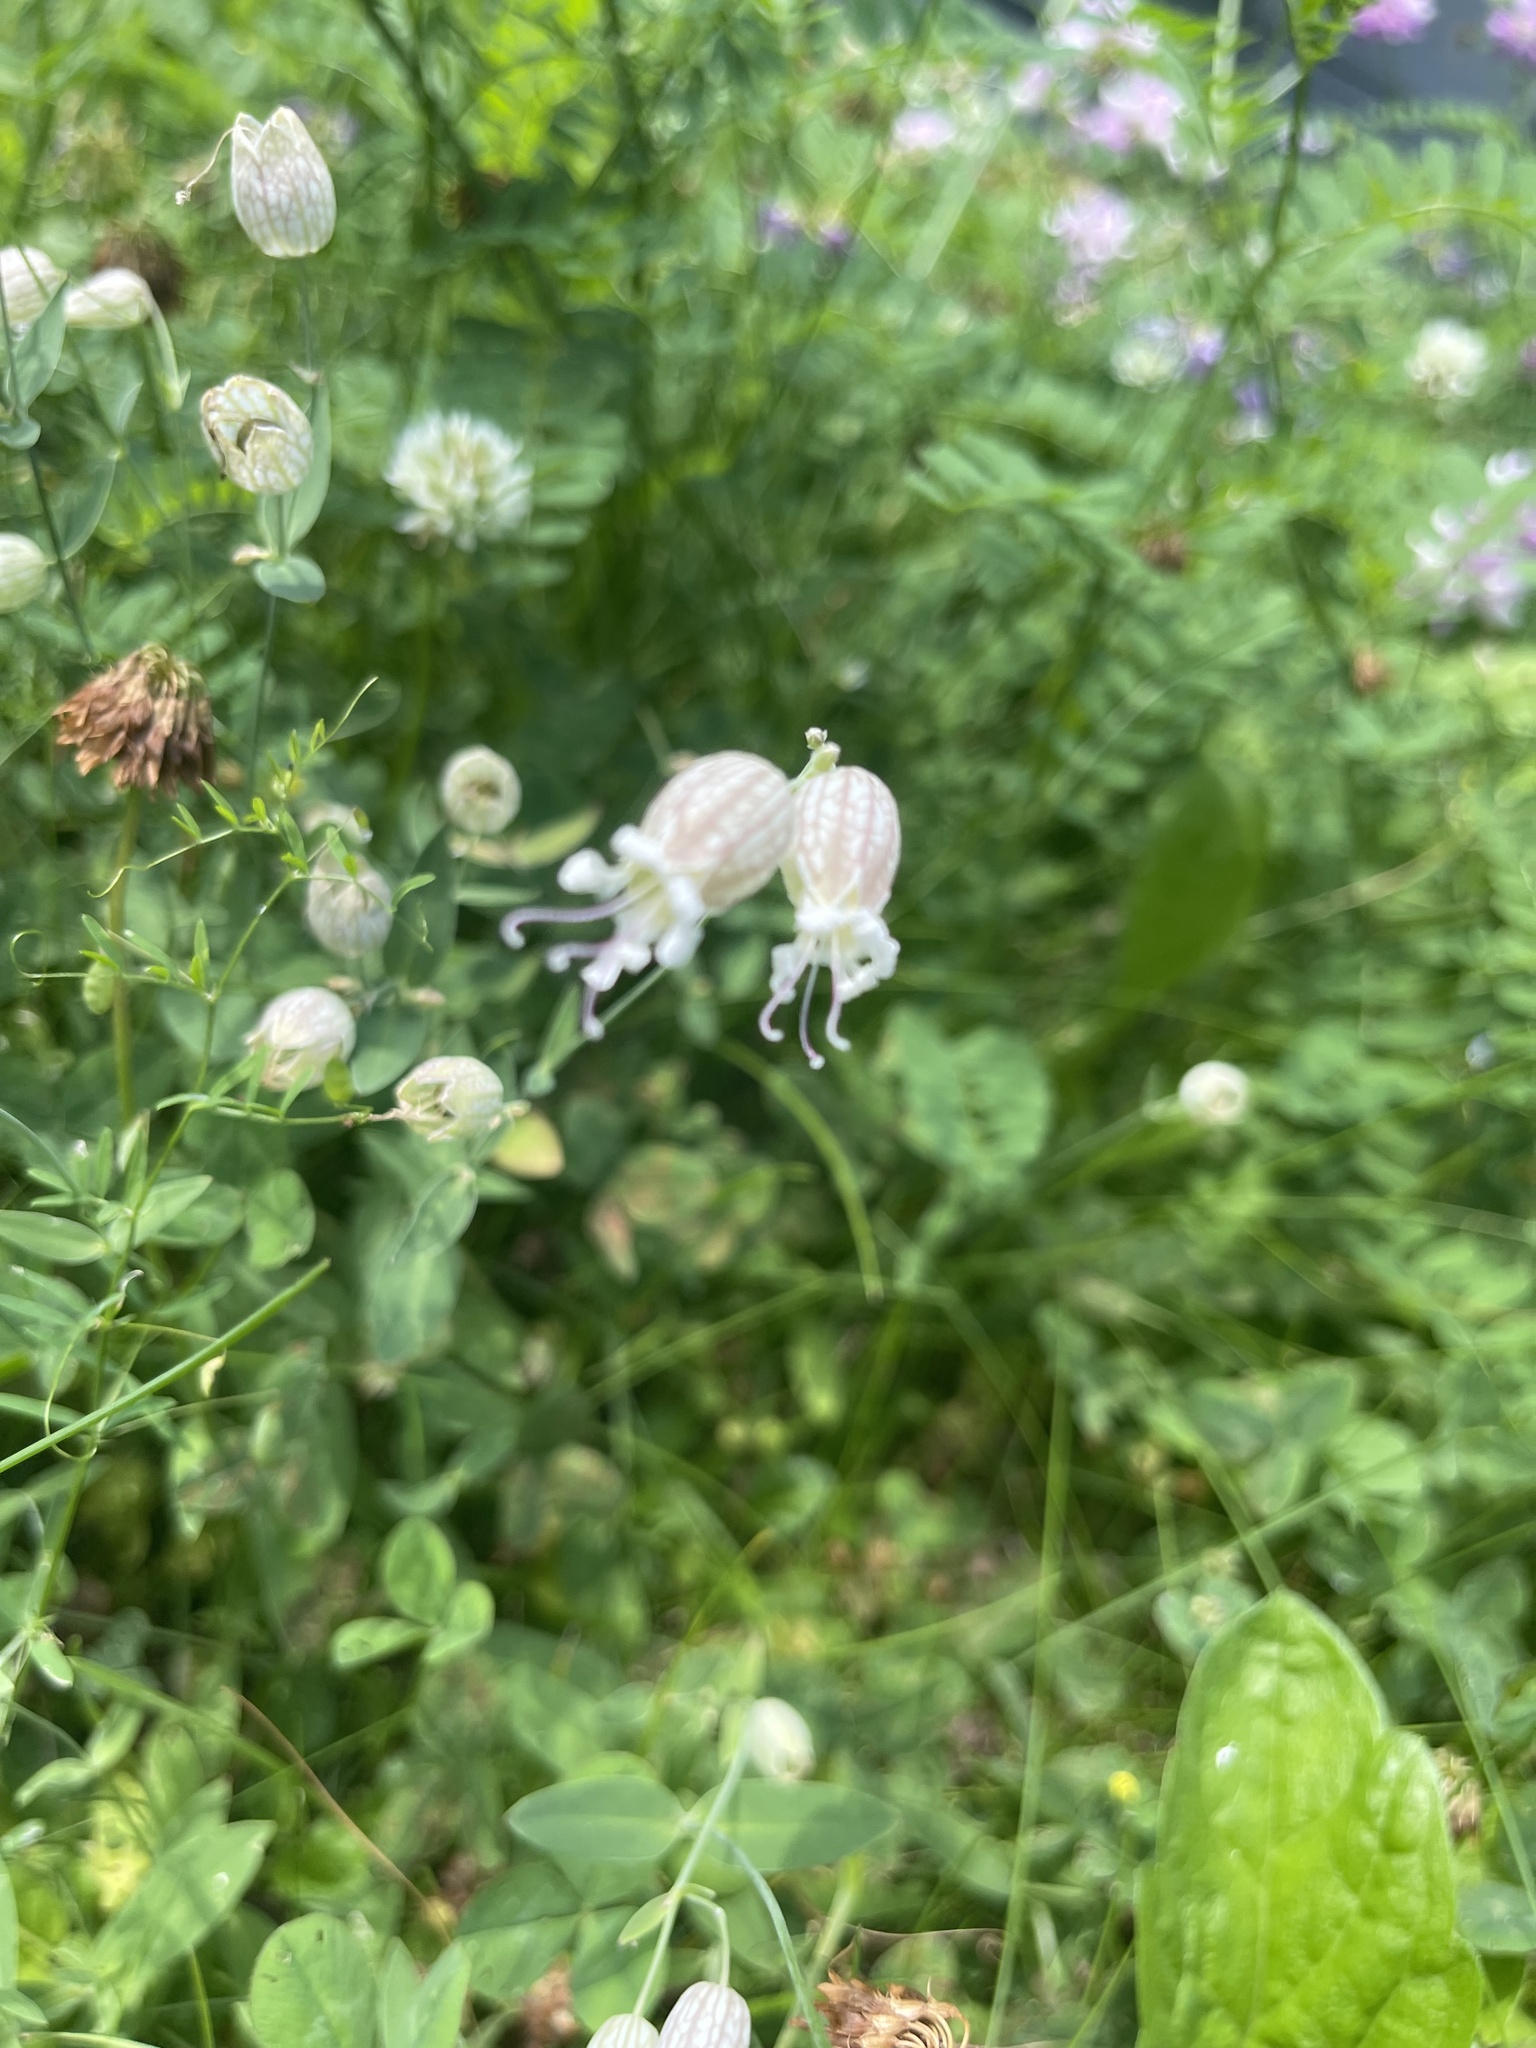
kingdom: Plantae
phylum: Tracheophyta
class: Magnoliopsida
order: Caryophyllales
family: Caryophyllaceae
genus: Silene
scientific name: Silene vulgaris
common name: Bladder campion
